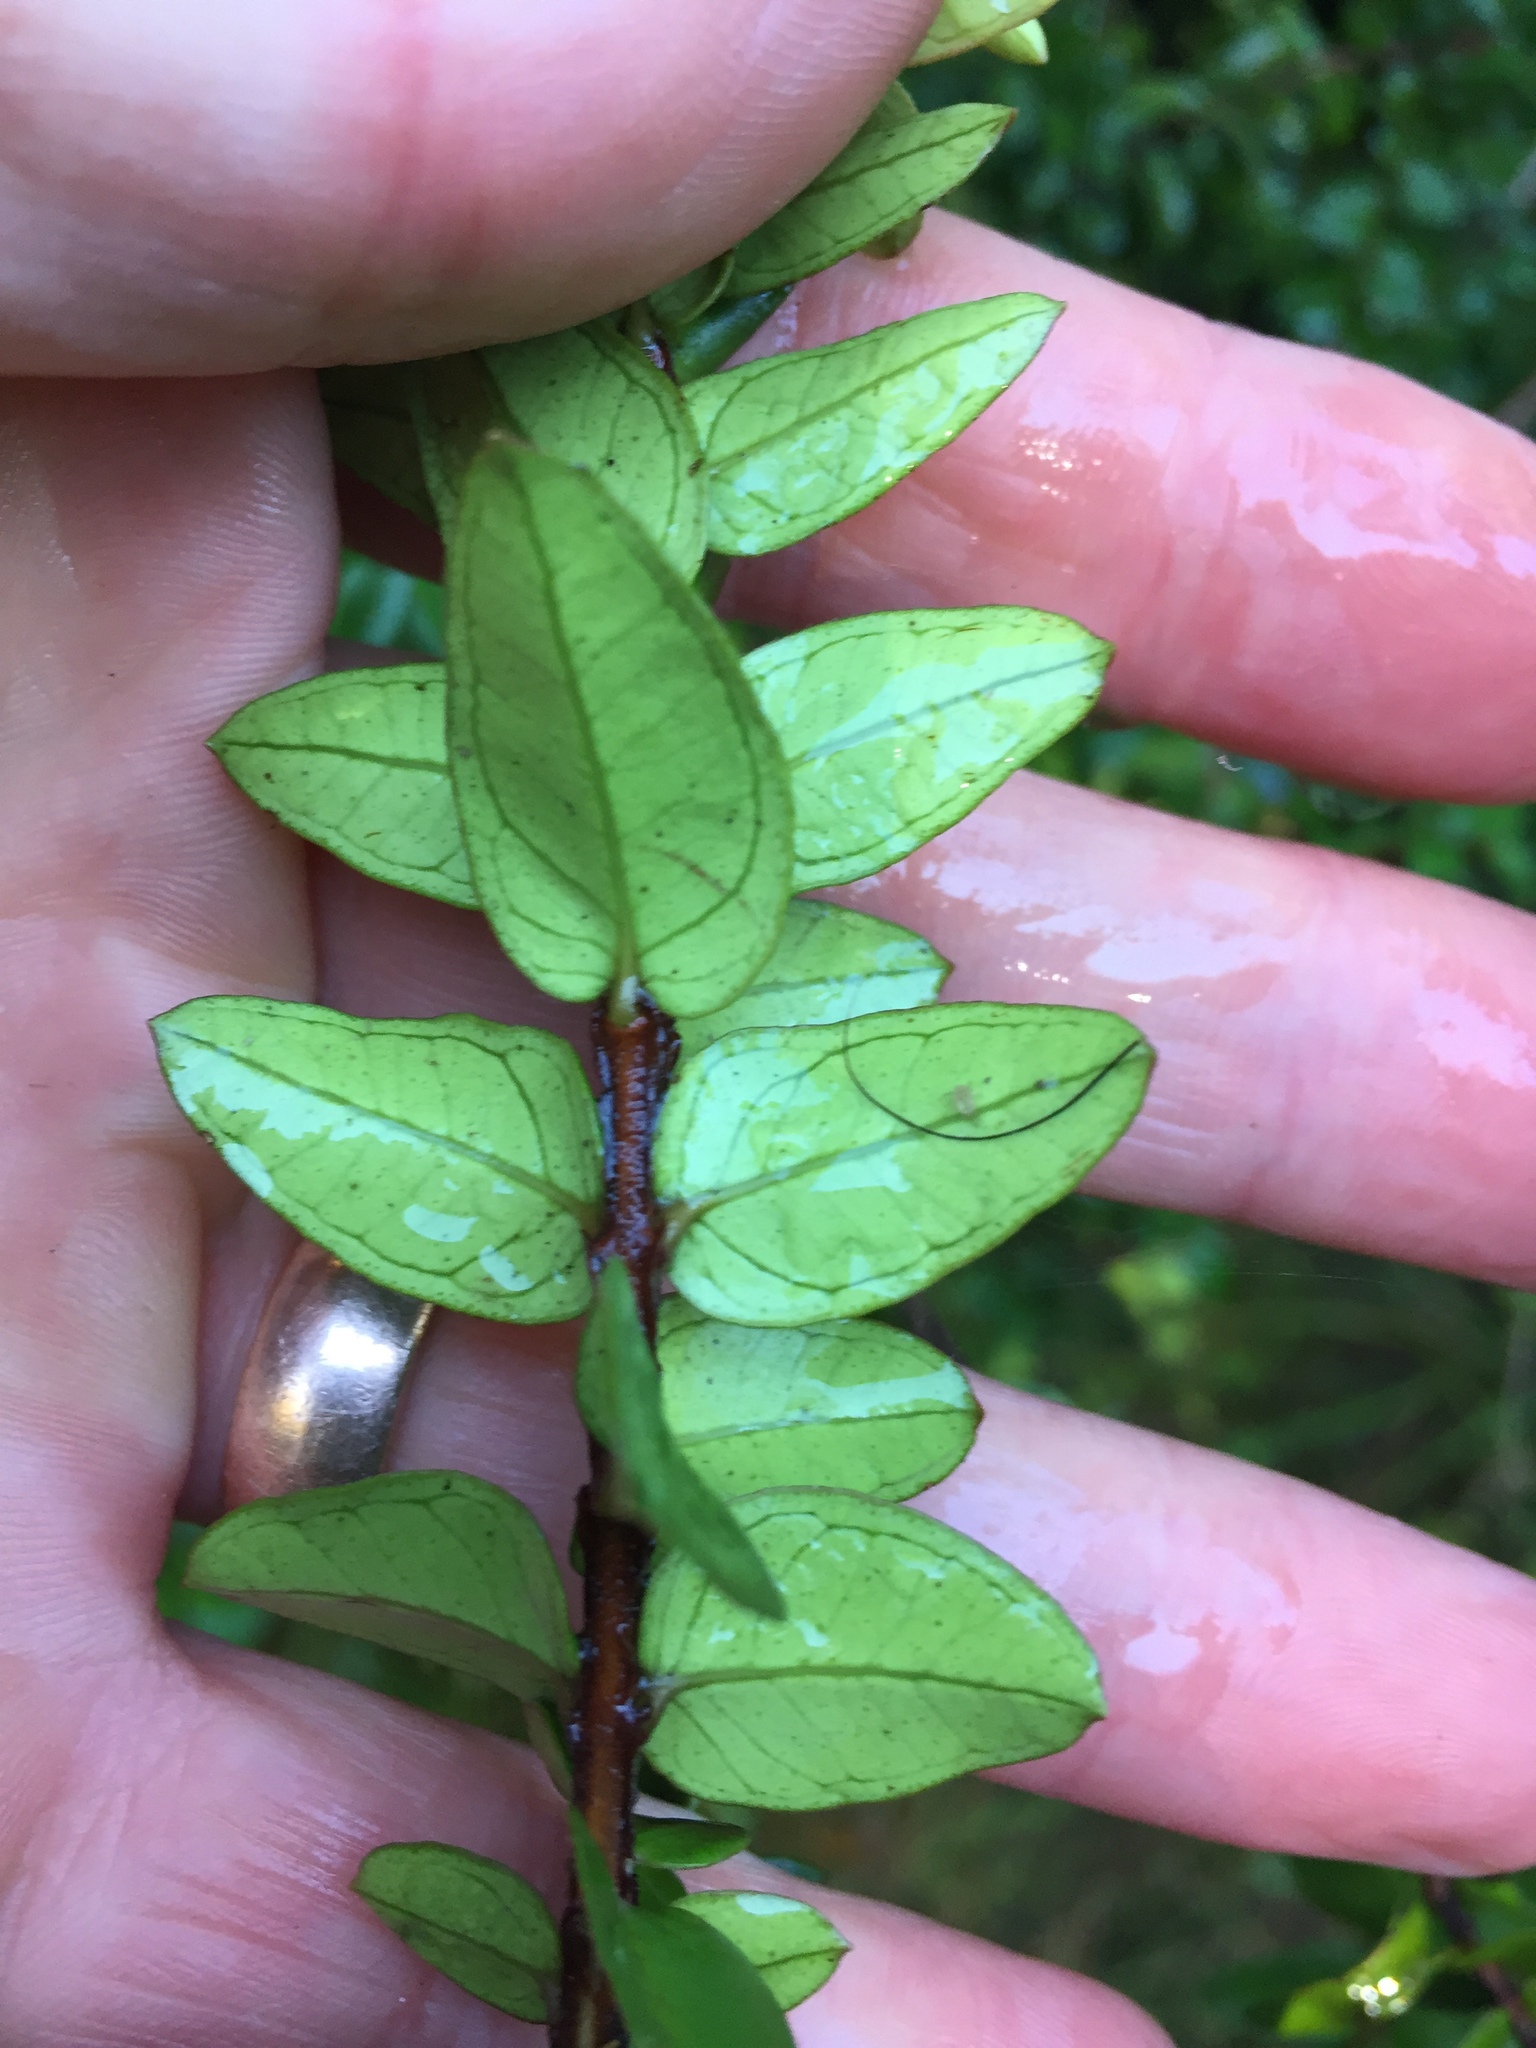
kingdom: Plantae
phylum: Tracheophyta
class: Magnoliopsida
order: Myrtales
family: Myrtaceae
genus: Metrosideros
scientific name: Metrosideros diffusa
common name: Small ratavine
